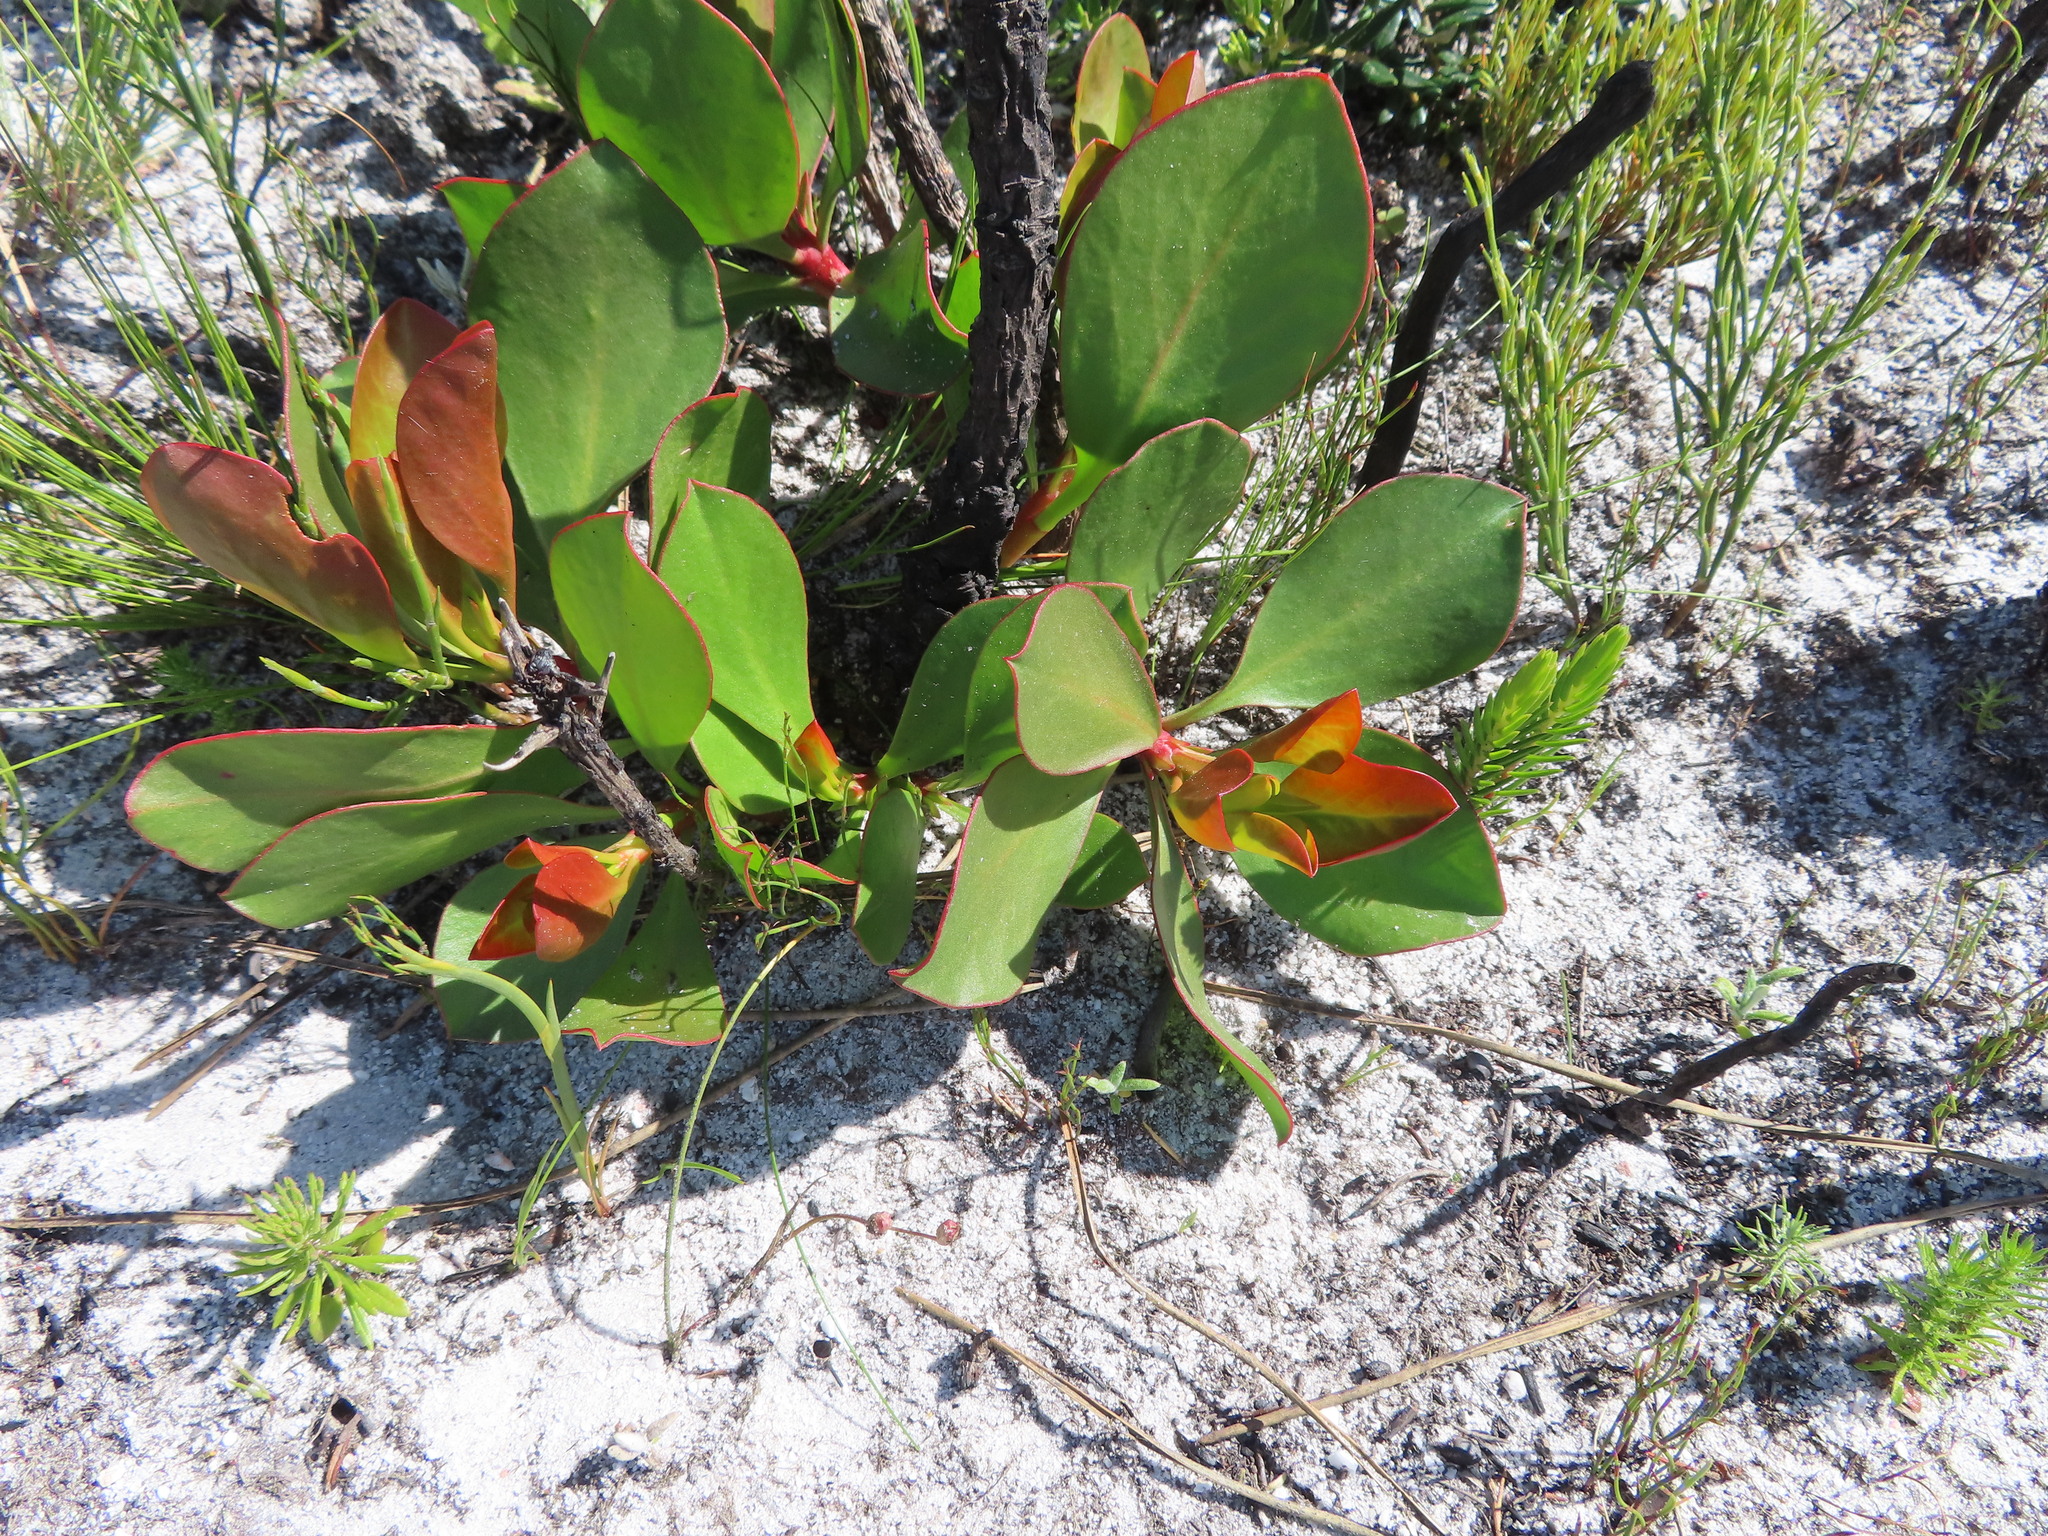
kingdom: Plantae
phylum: Tracheophyta
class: Magnoliopsida
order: Proteales
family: Proteaceae
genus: Protea
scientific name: Protea cynaroides
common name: King protea
